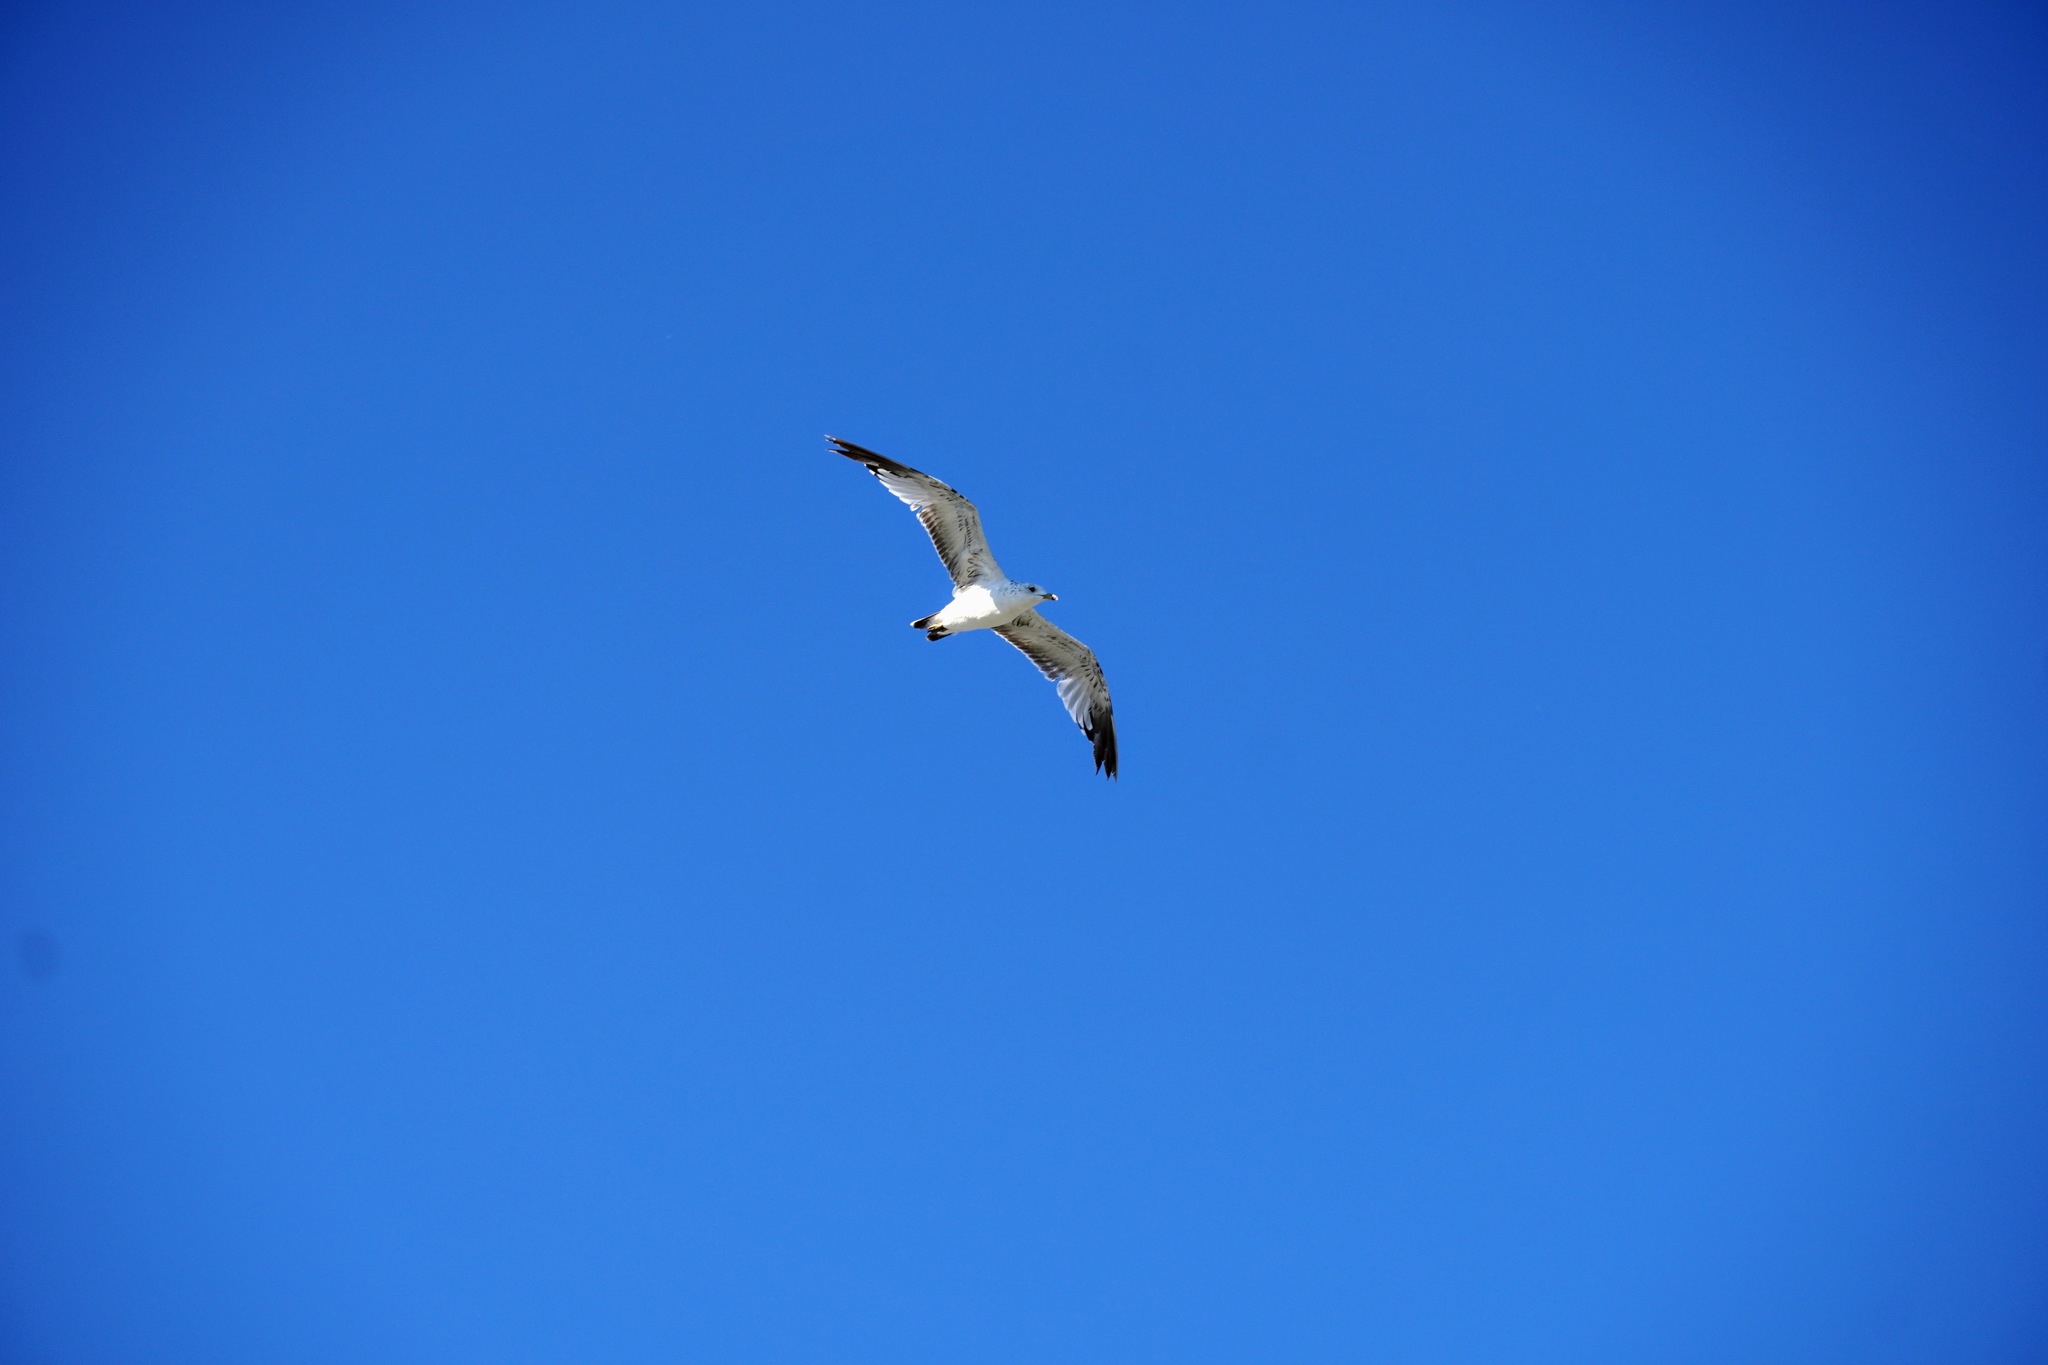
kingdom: Animalia
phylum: Chordata
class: Aves
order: Charadriiformes
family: Laridae
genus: Larus
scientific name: Larus delawarensis
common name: Ring-billed gull
